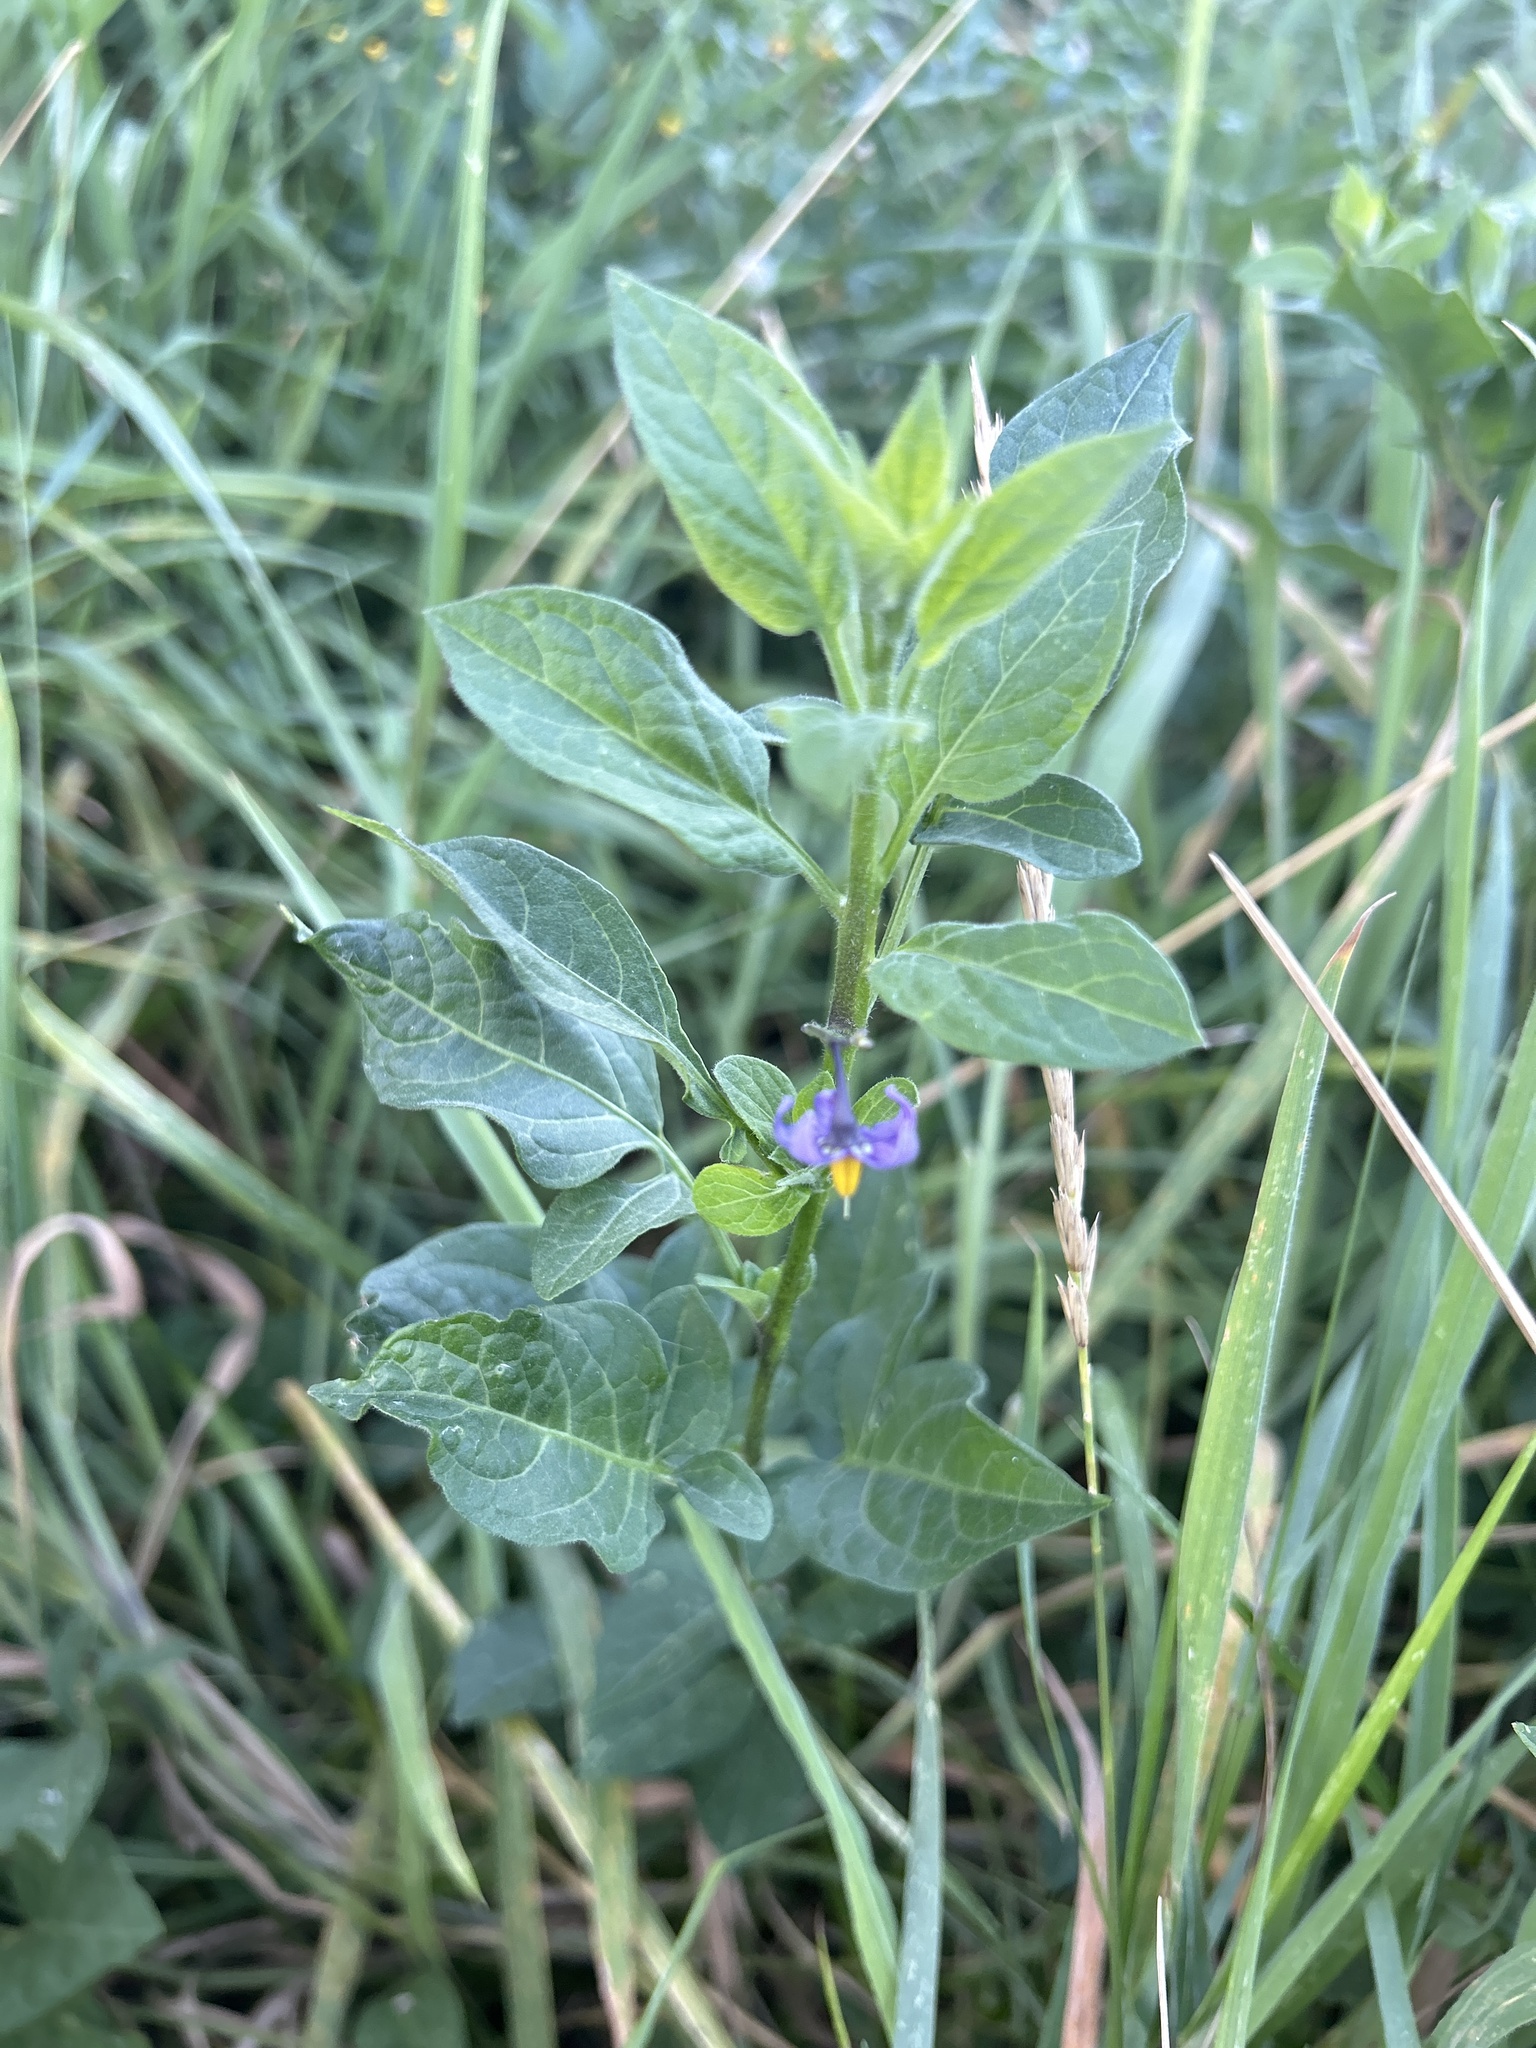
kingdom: Plantae
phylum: Tracheophyta
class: Magnoliopsida
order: Solanales
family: Solanaceae
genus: Solanum
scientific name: Solanum dulcamara
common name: Climbing nightshade
